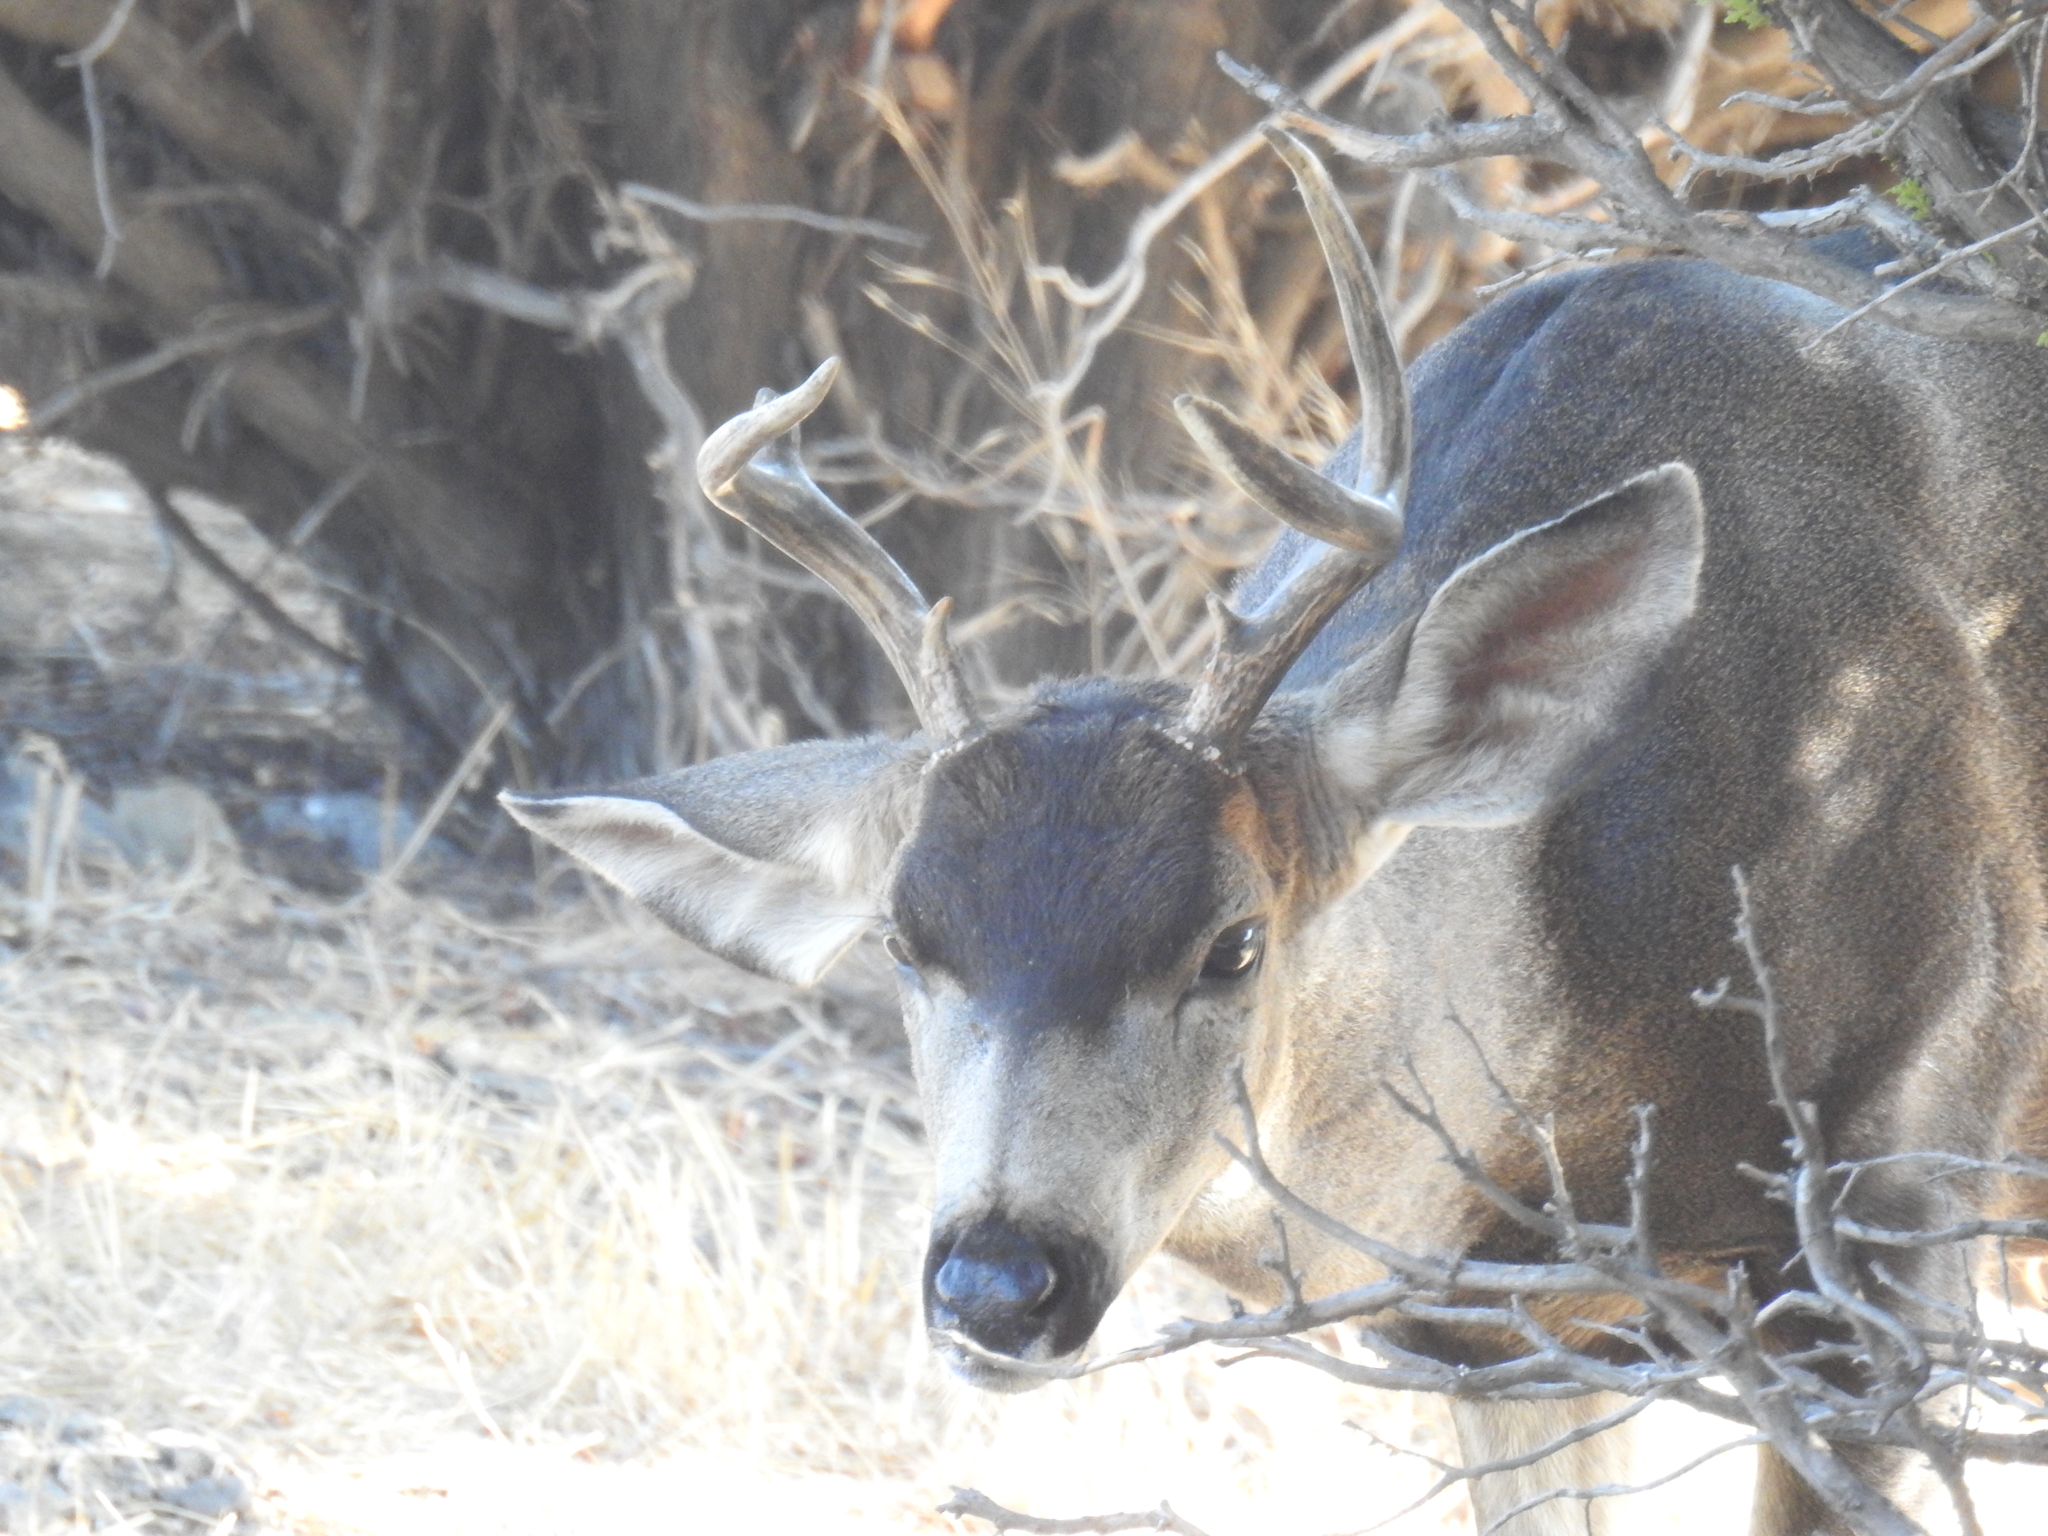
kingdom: Animalia
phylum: Chordata
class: Mammalia
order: Artiodactyla
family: Cervidae
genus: Odocoileus
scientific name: Odocoileus hemionus
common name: Mule deer
